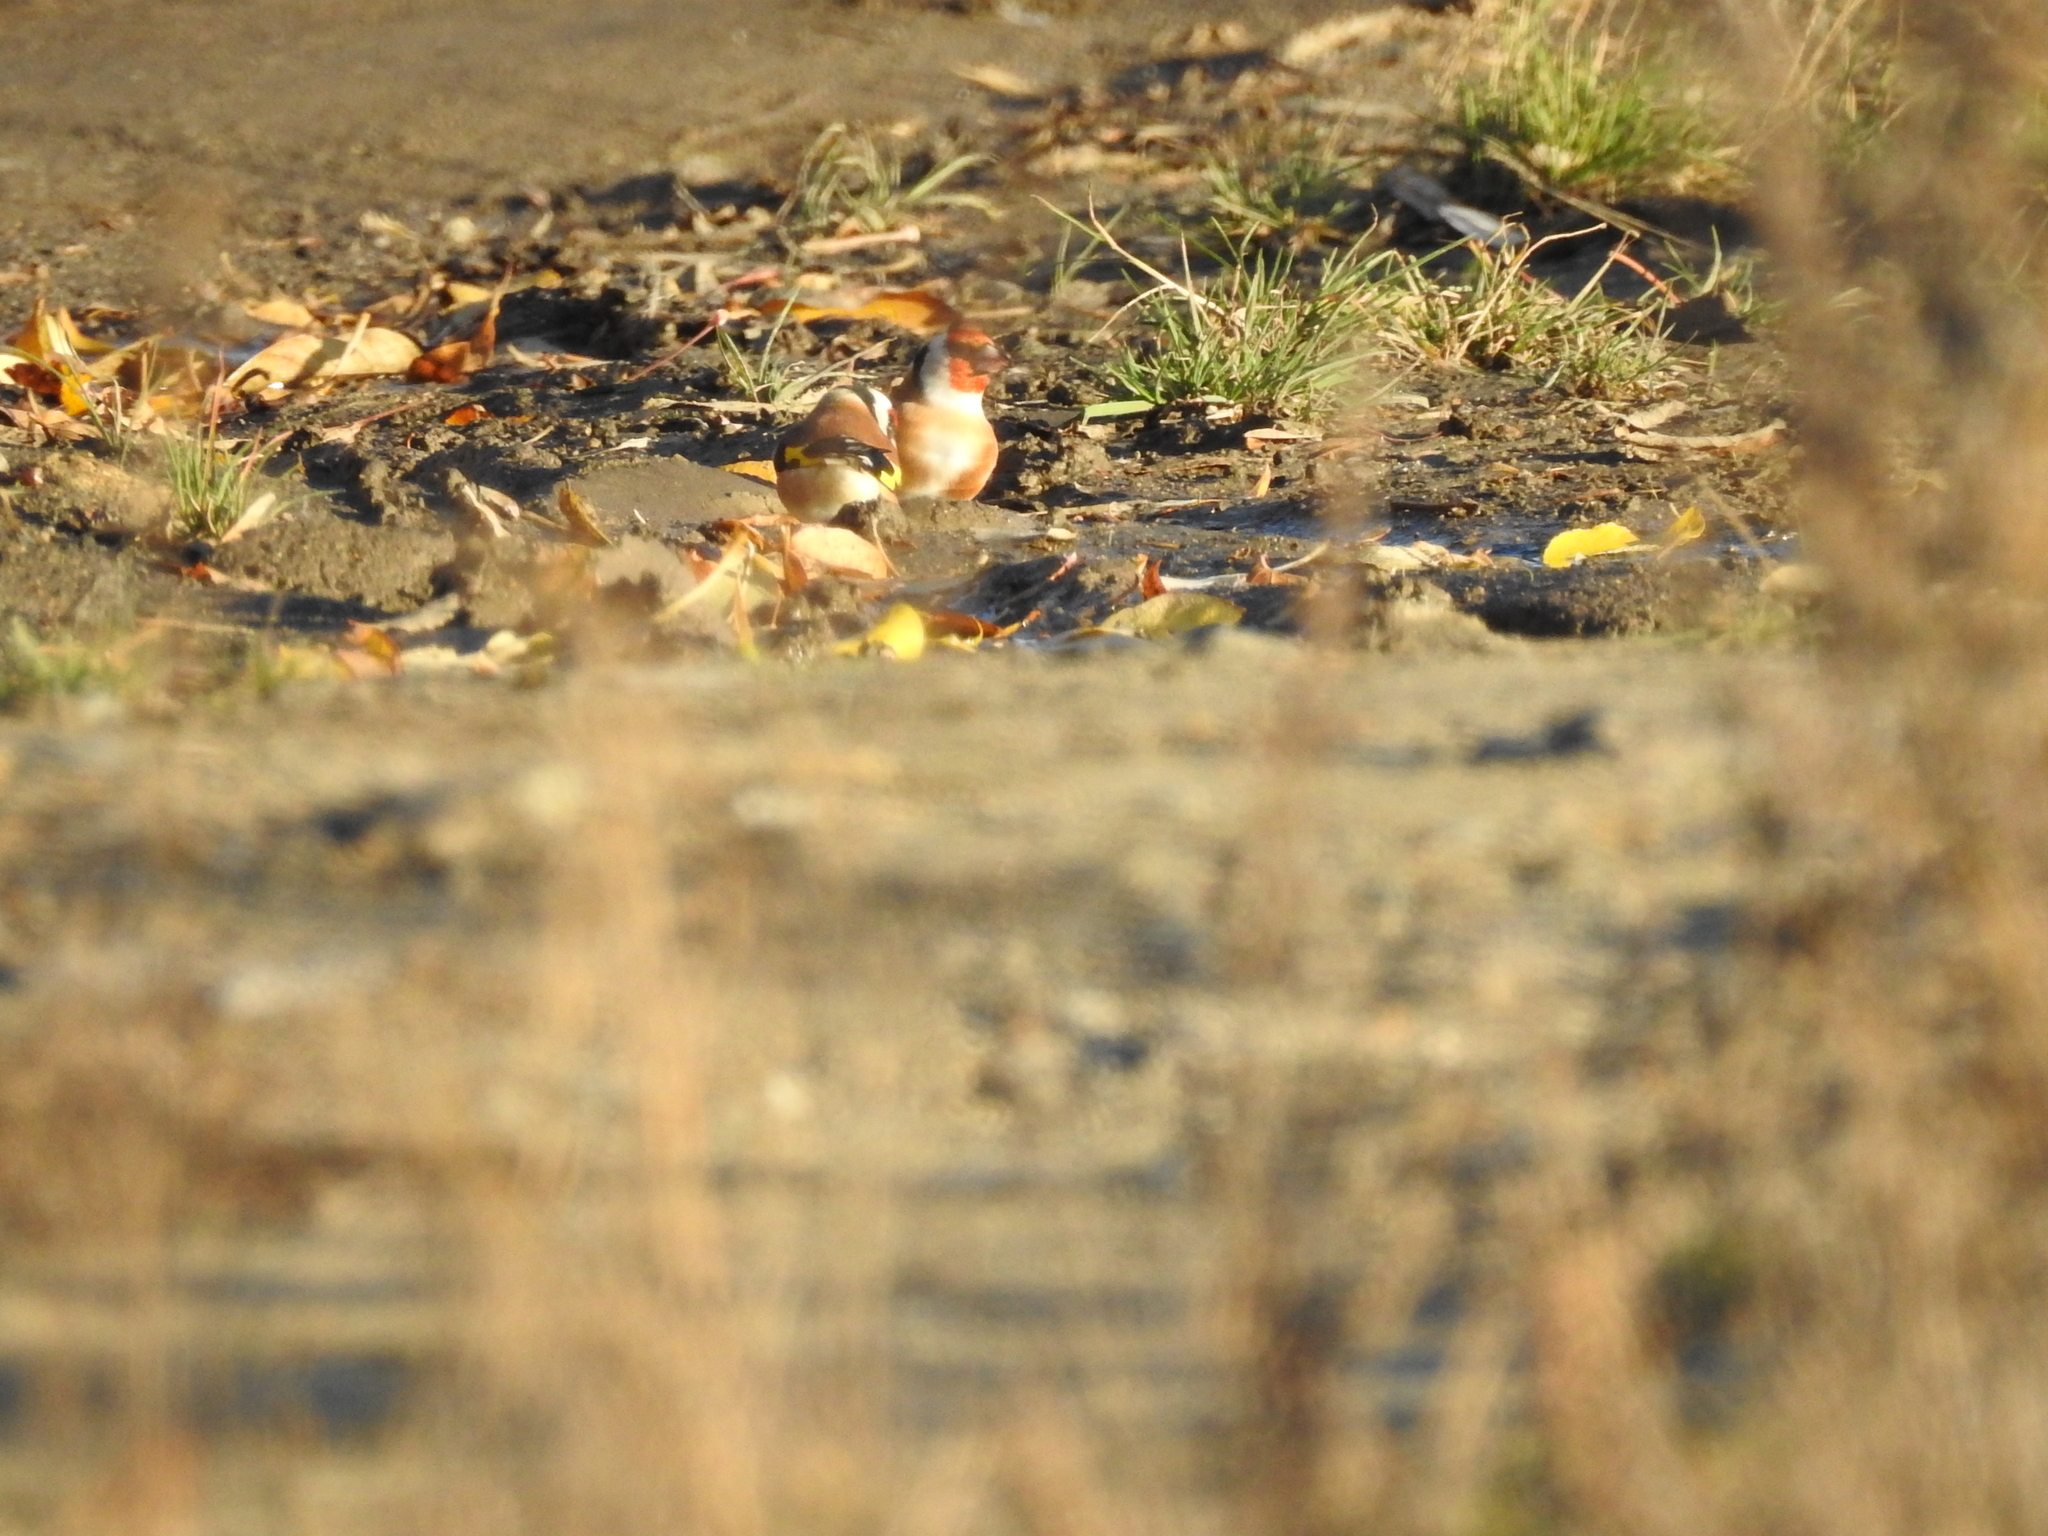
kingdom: Animalia
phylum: Chordata
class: Aves
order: Passeriformes
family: Fringillidae
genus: Carduelis
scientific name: Carduelis carduelis
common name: European goldfinch
